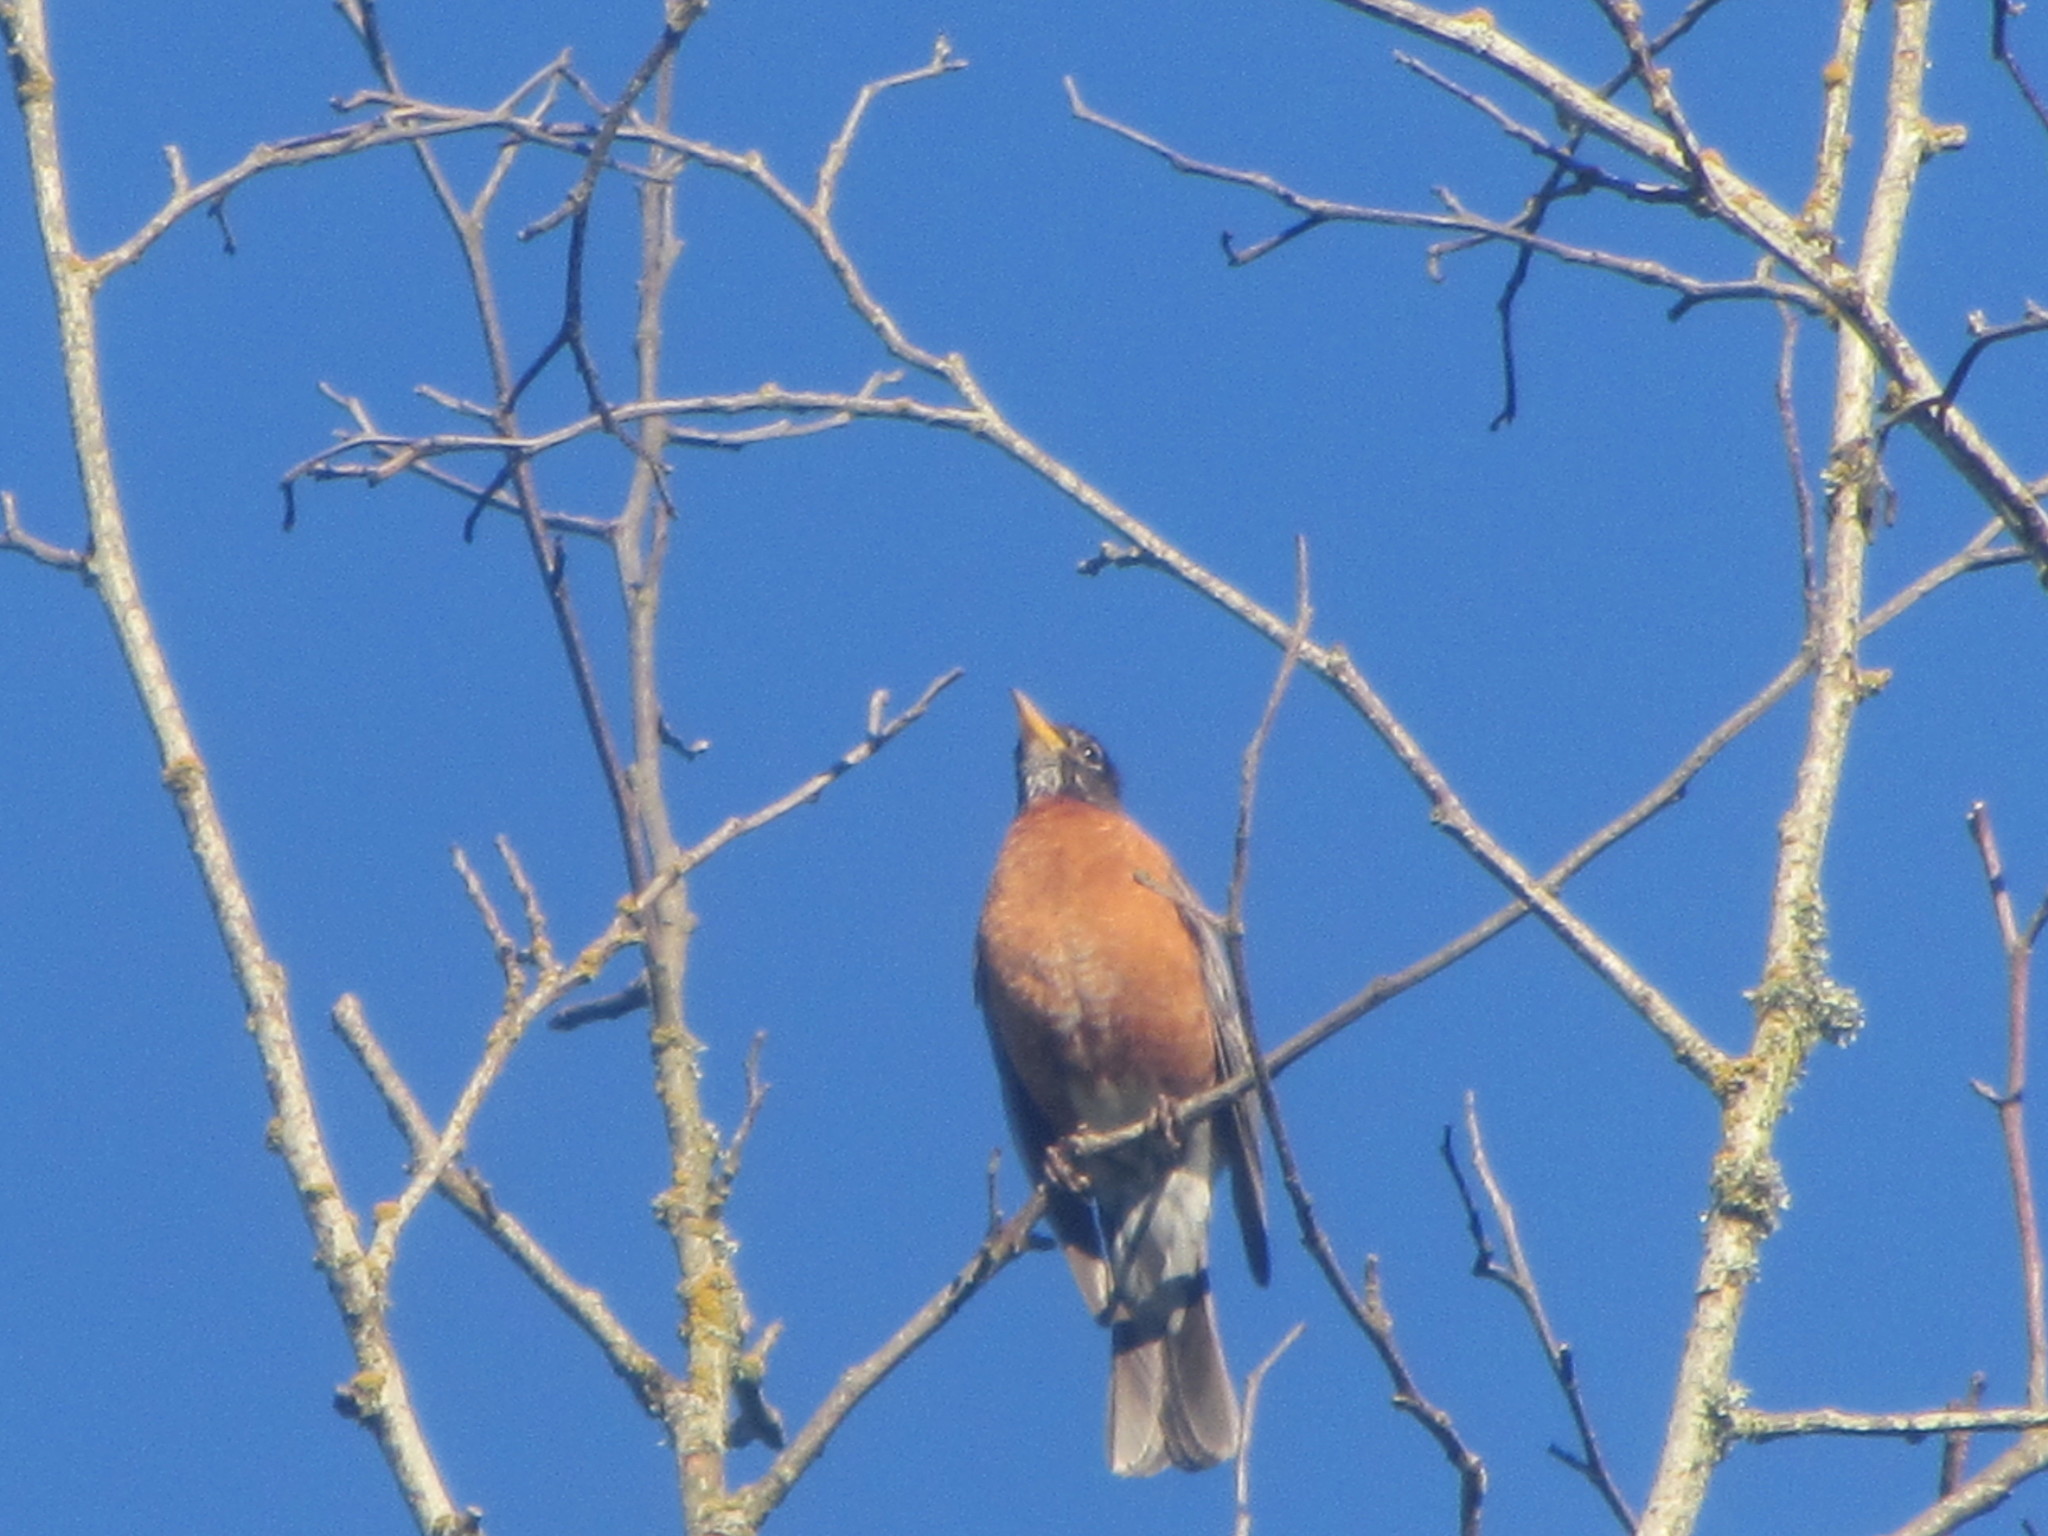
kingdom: Animalia
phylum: Chordata
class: Aves
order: Passeriformes
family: Turdidae
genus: Turdus
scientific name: Turdus migratorius
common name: American robin
